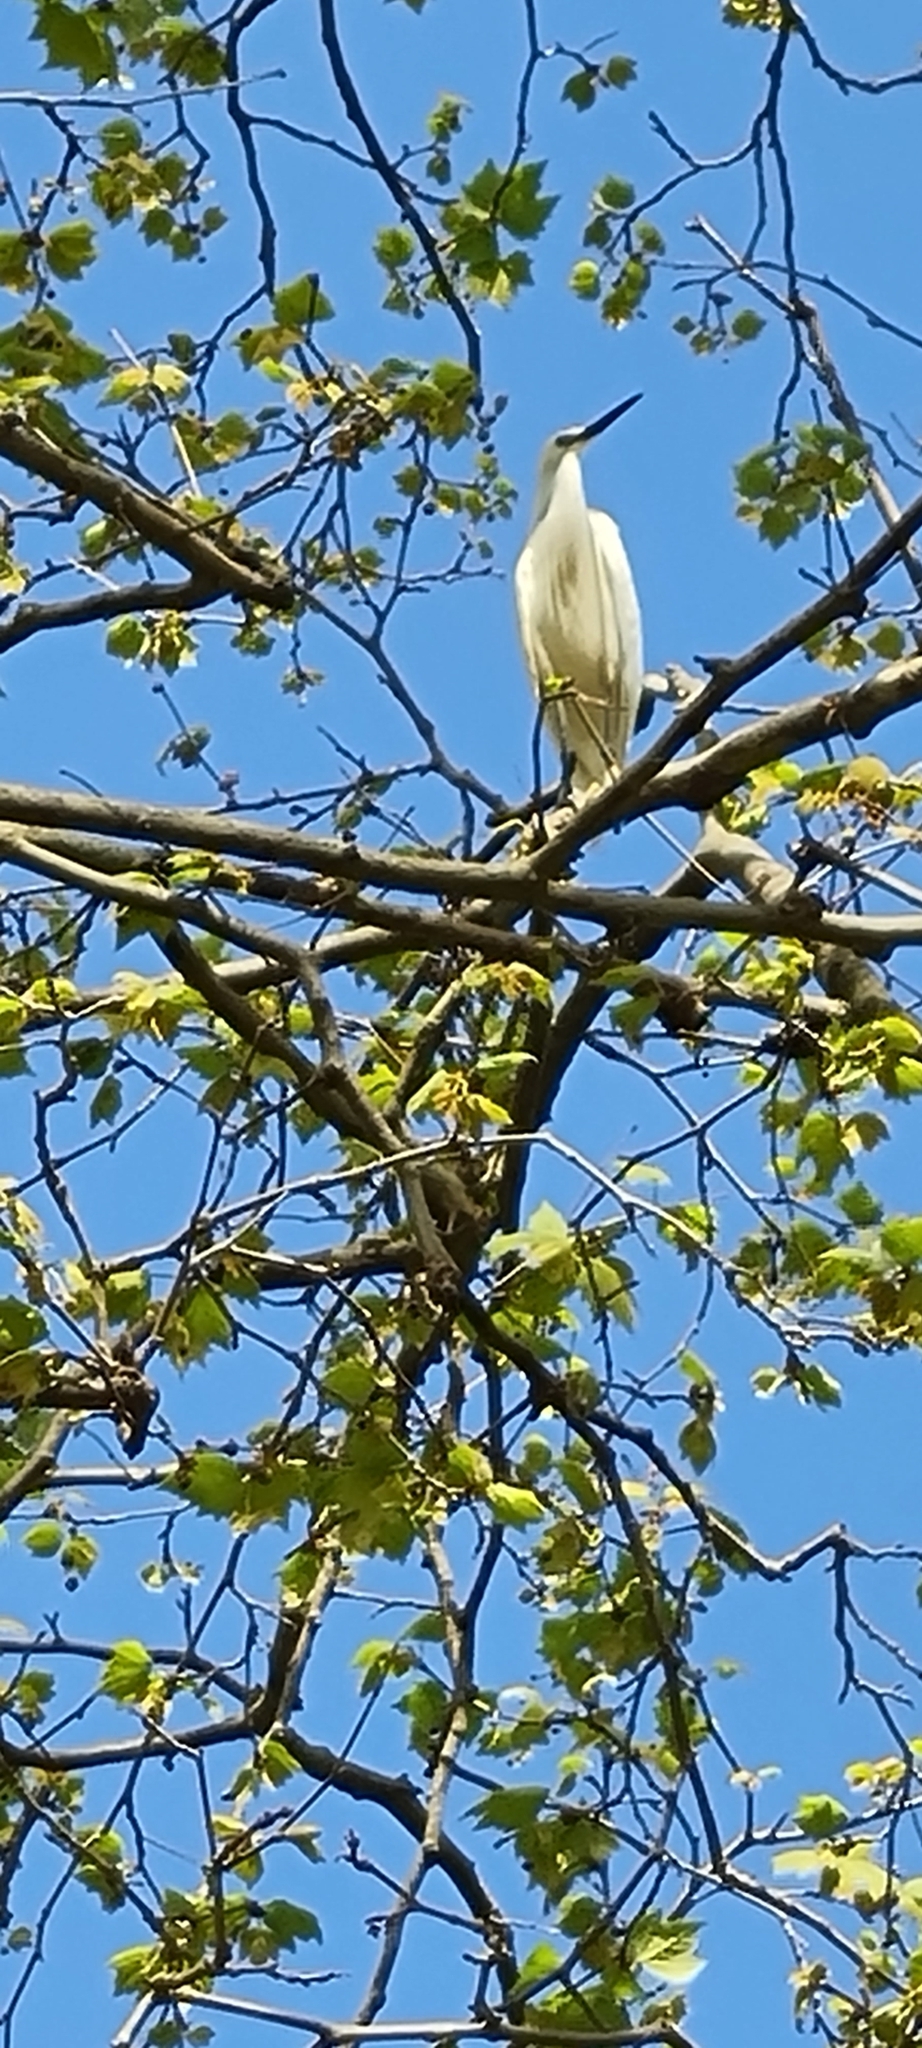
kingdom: Animalia
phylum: Chordata
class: Aves
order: Pelecaniformes
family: Ardeidae
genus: Egretta
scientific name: Egretta garzetta
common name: Little egret
